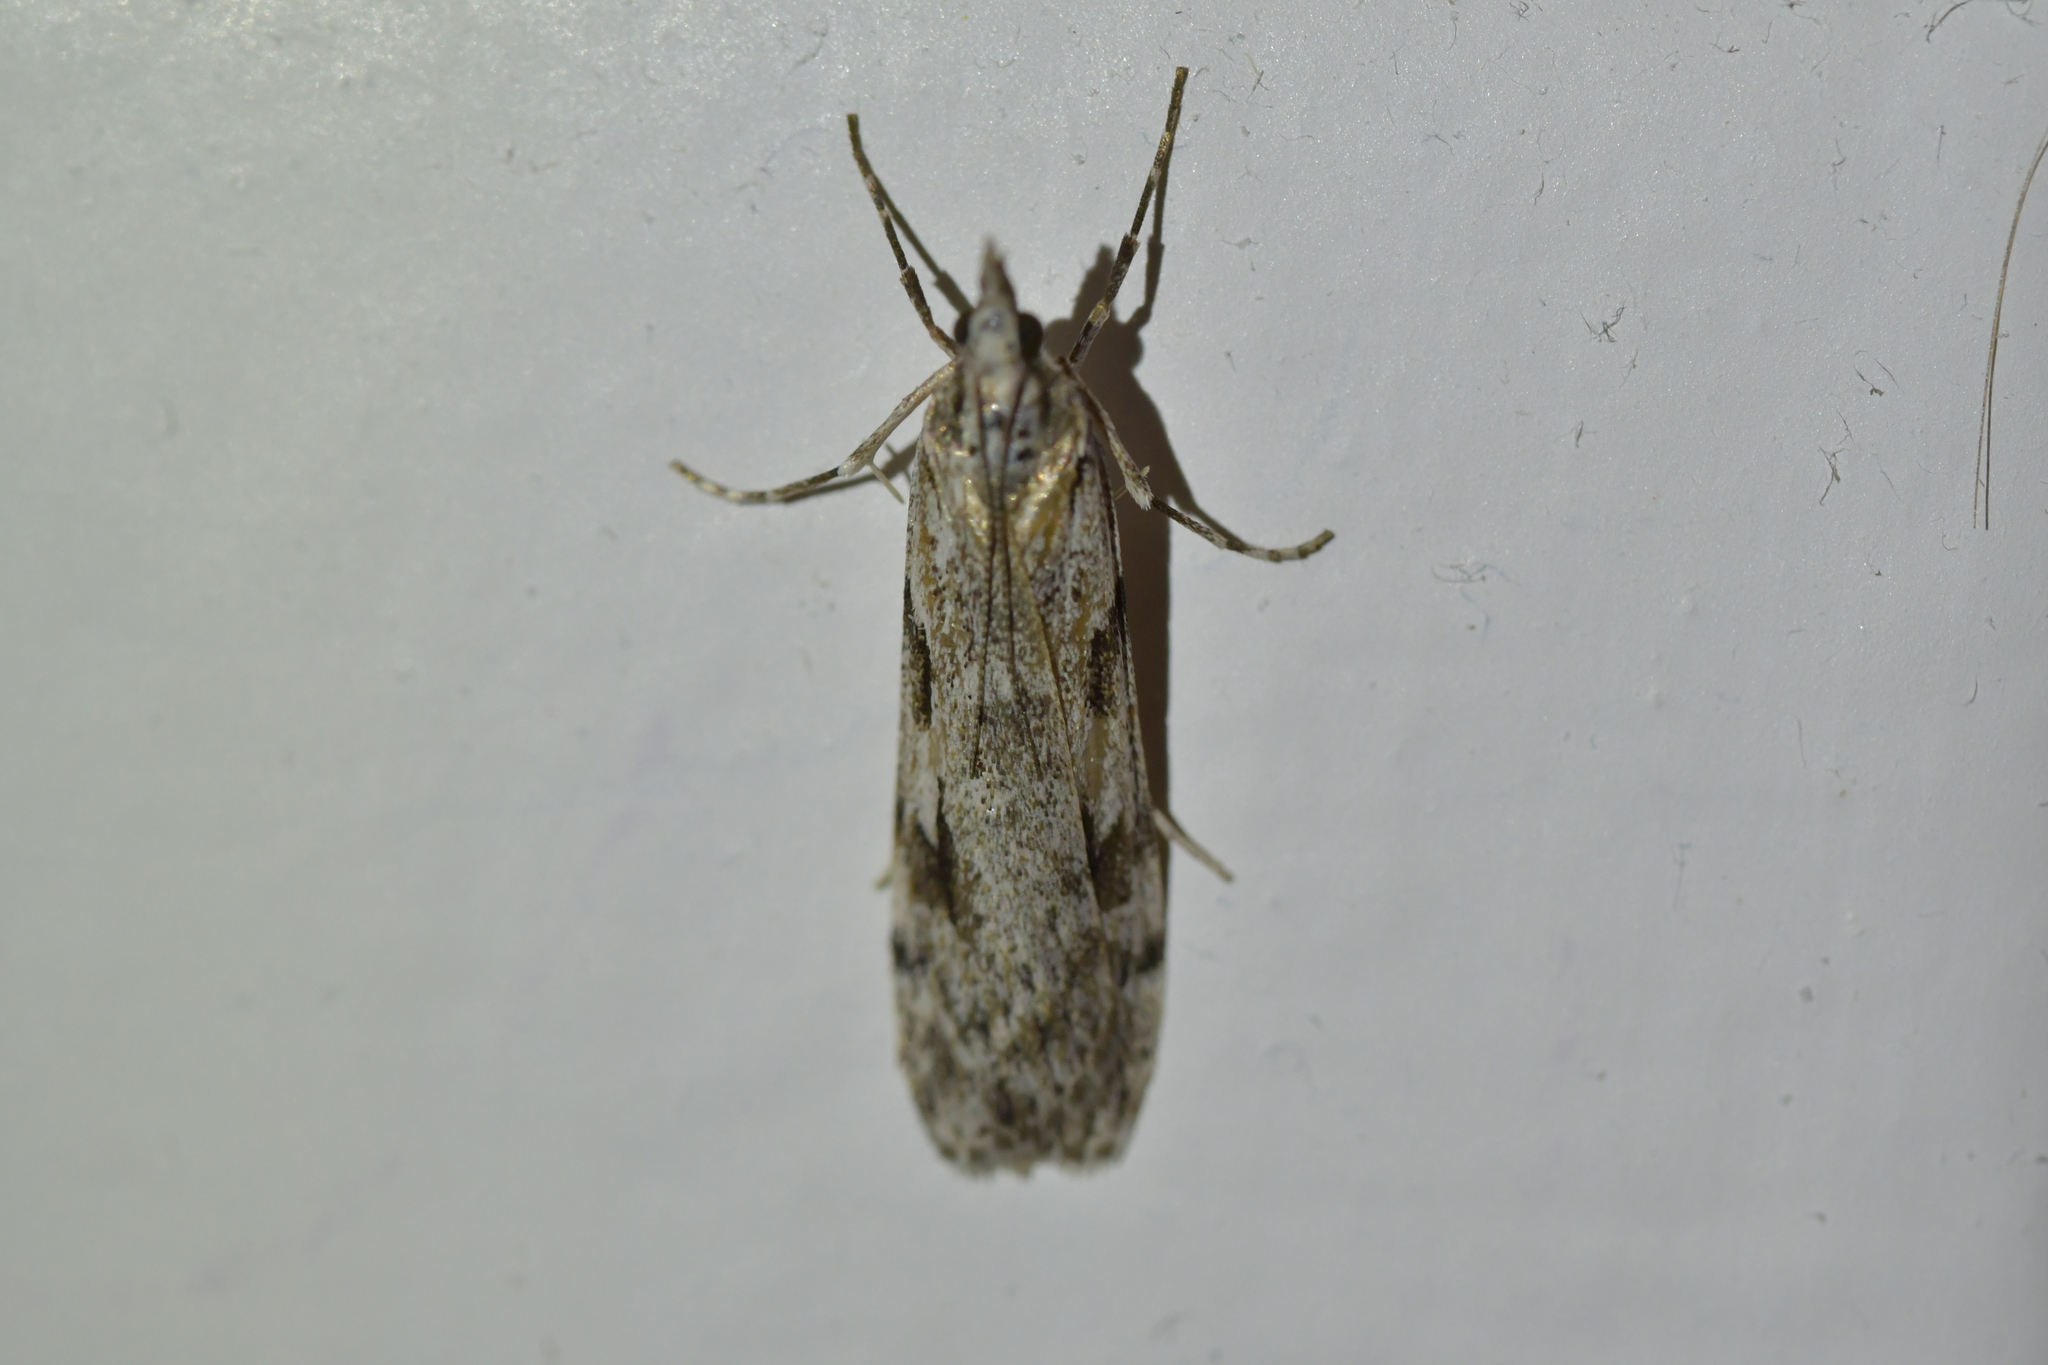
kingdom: Animalia
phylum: Arthropoda
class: Insecta
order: Lepidoptera
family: Crambidae
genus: Scoparia
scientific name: Scoparia halopis
